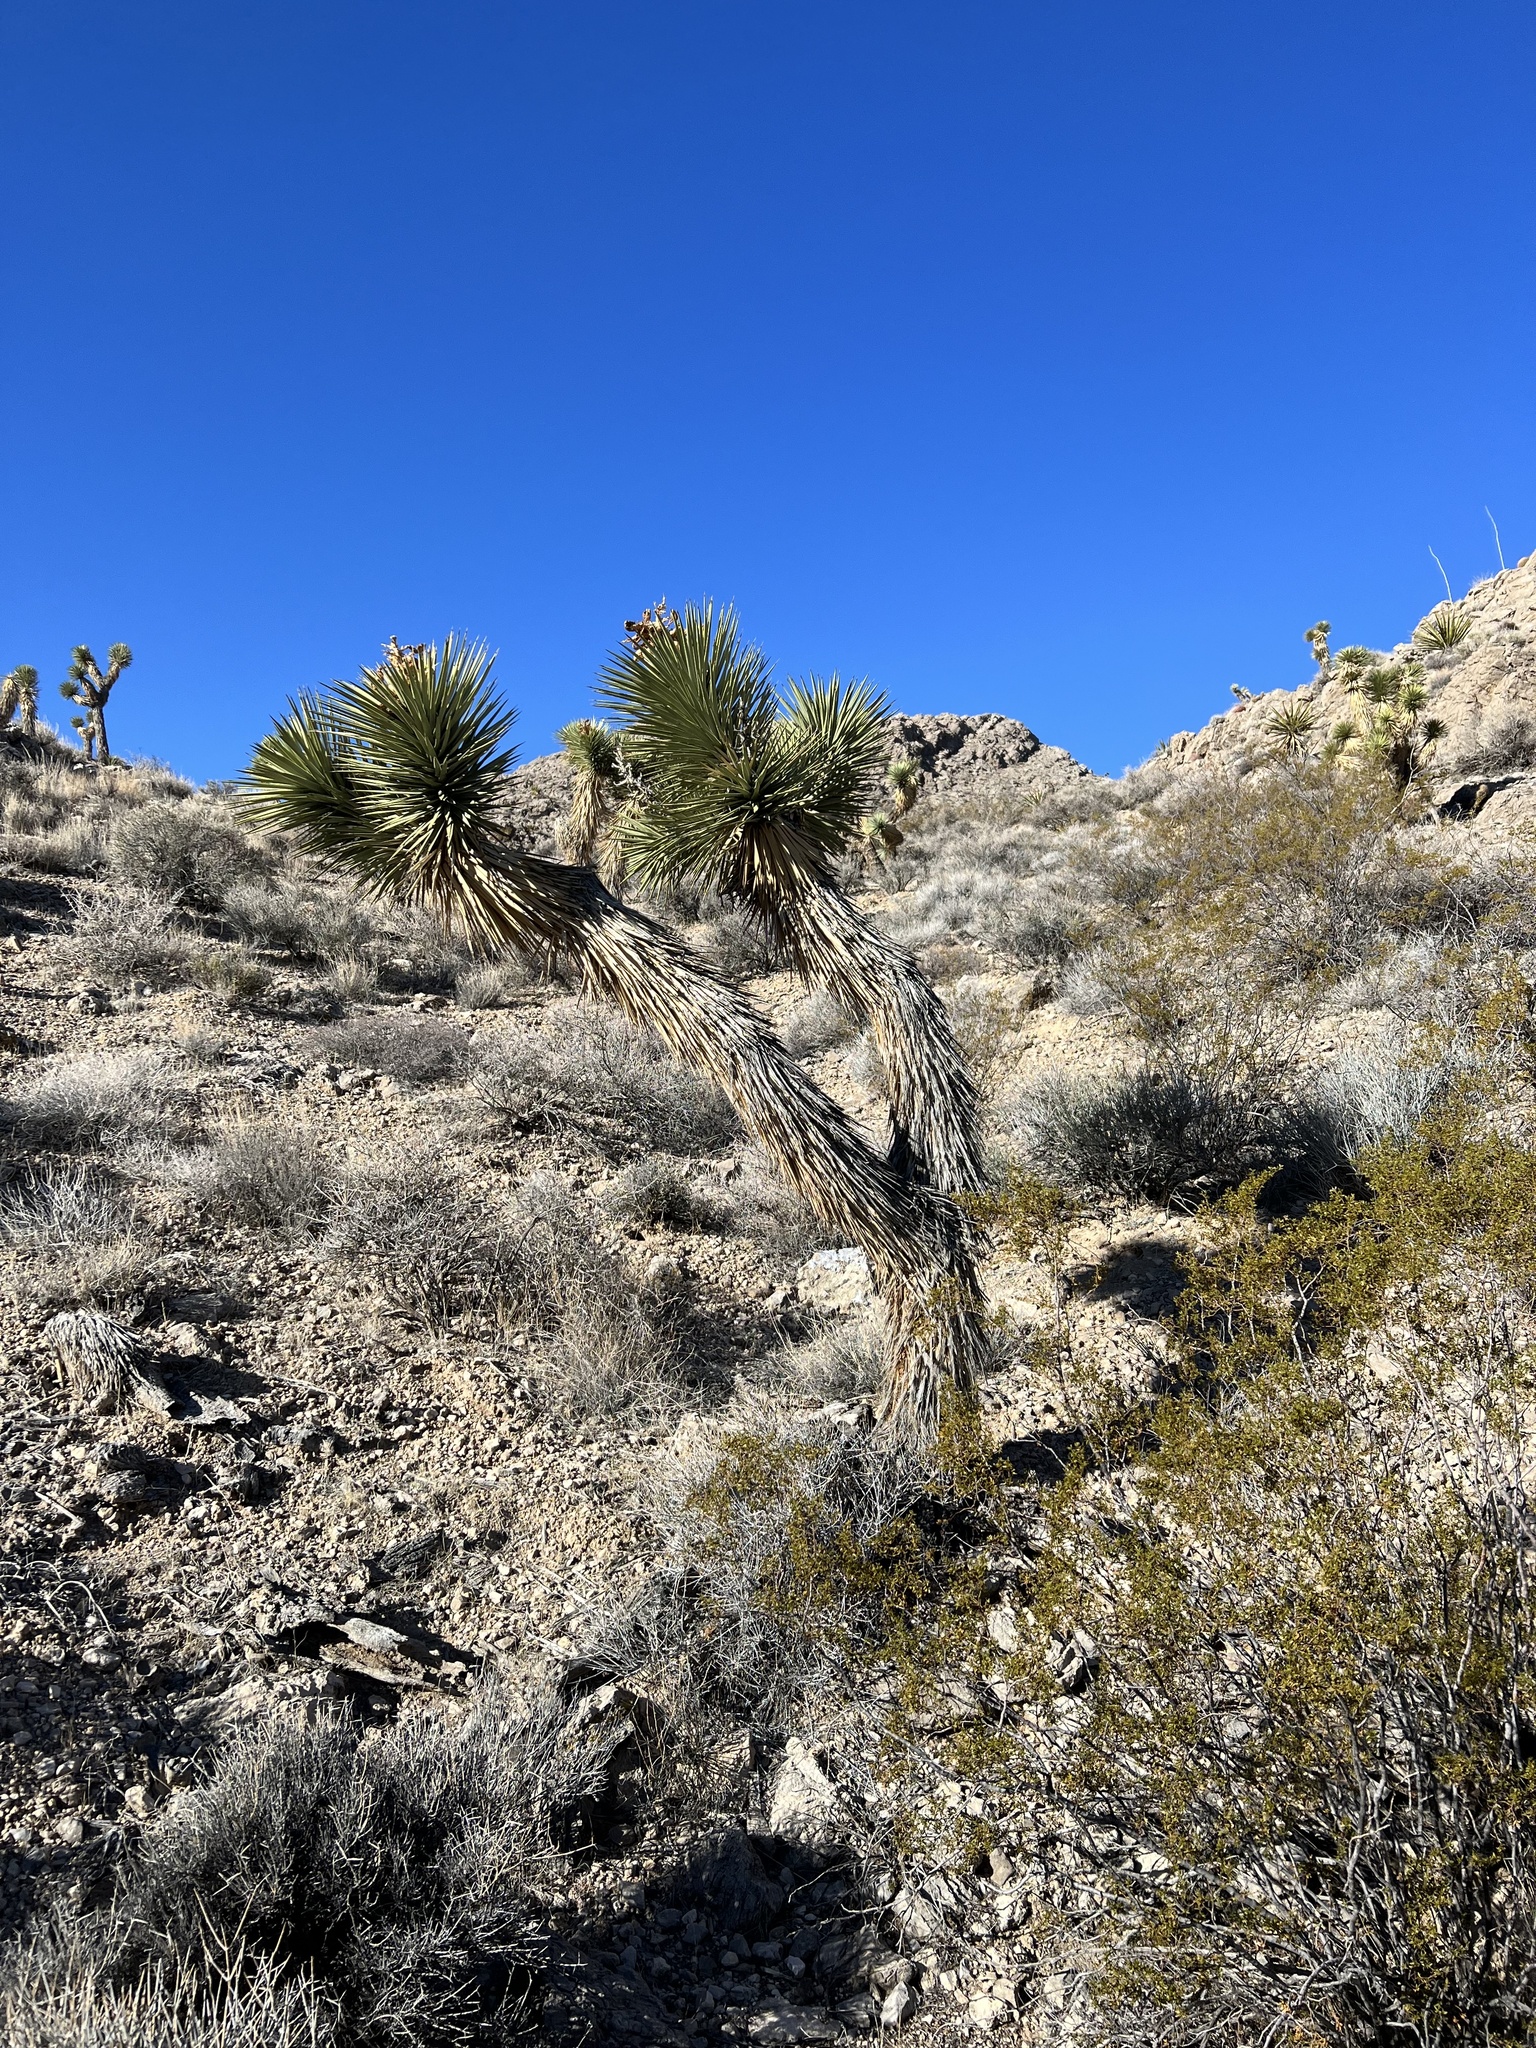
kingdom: Plantae
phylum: Tracheophyta
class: Liliopsida
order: Asparagales
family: Asparagaceae
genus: Yucca
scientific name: Yucca brevifolia
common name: Joshua tree
